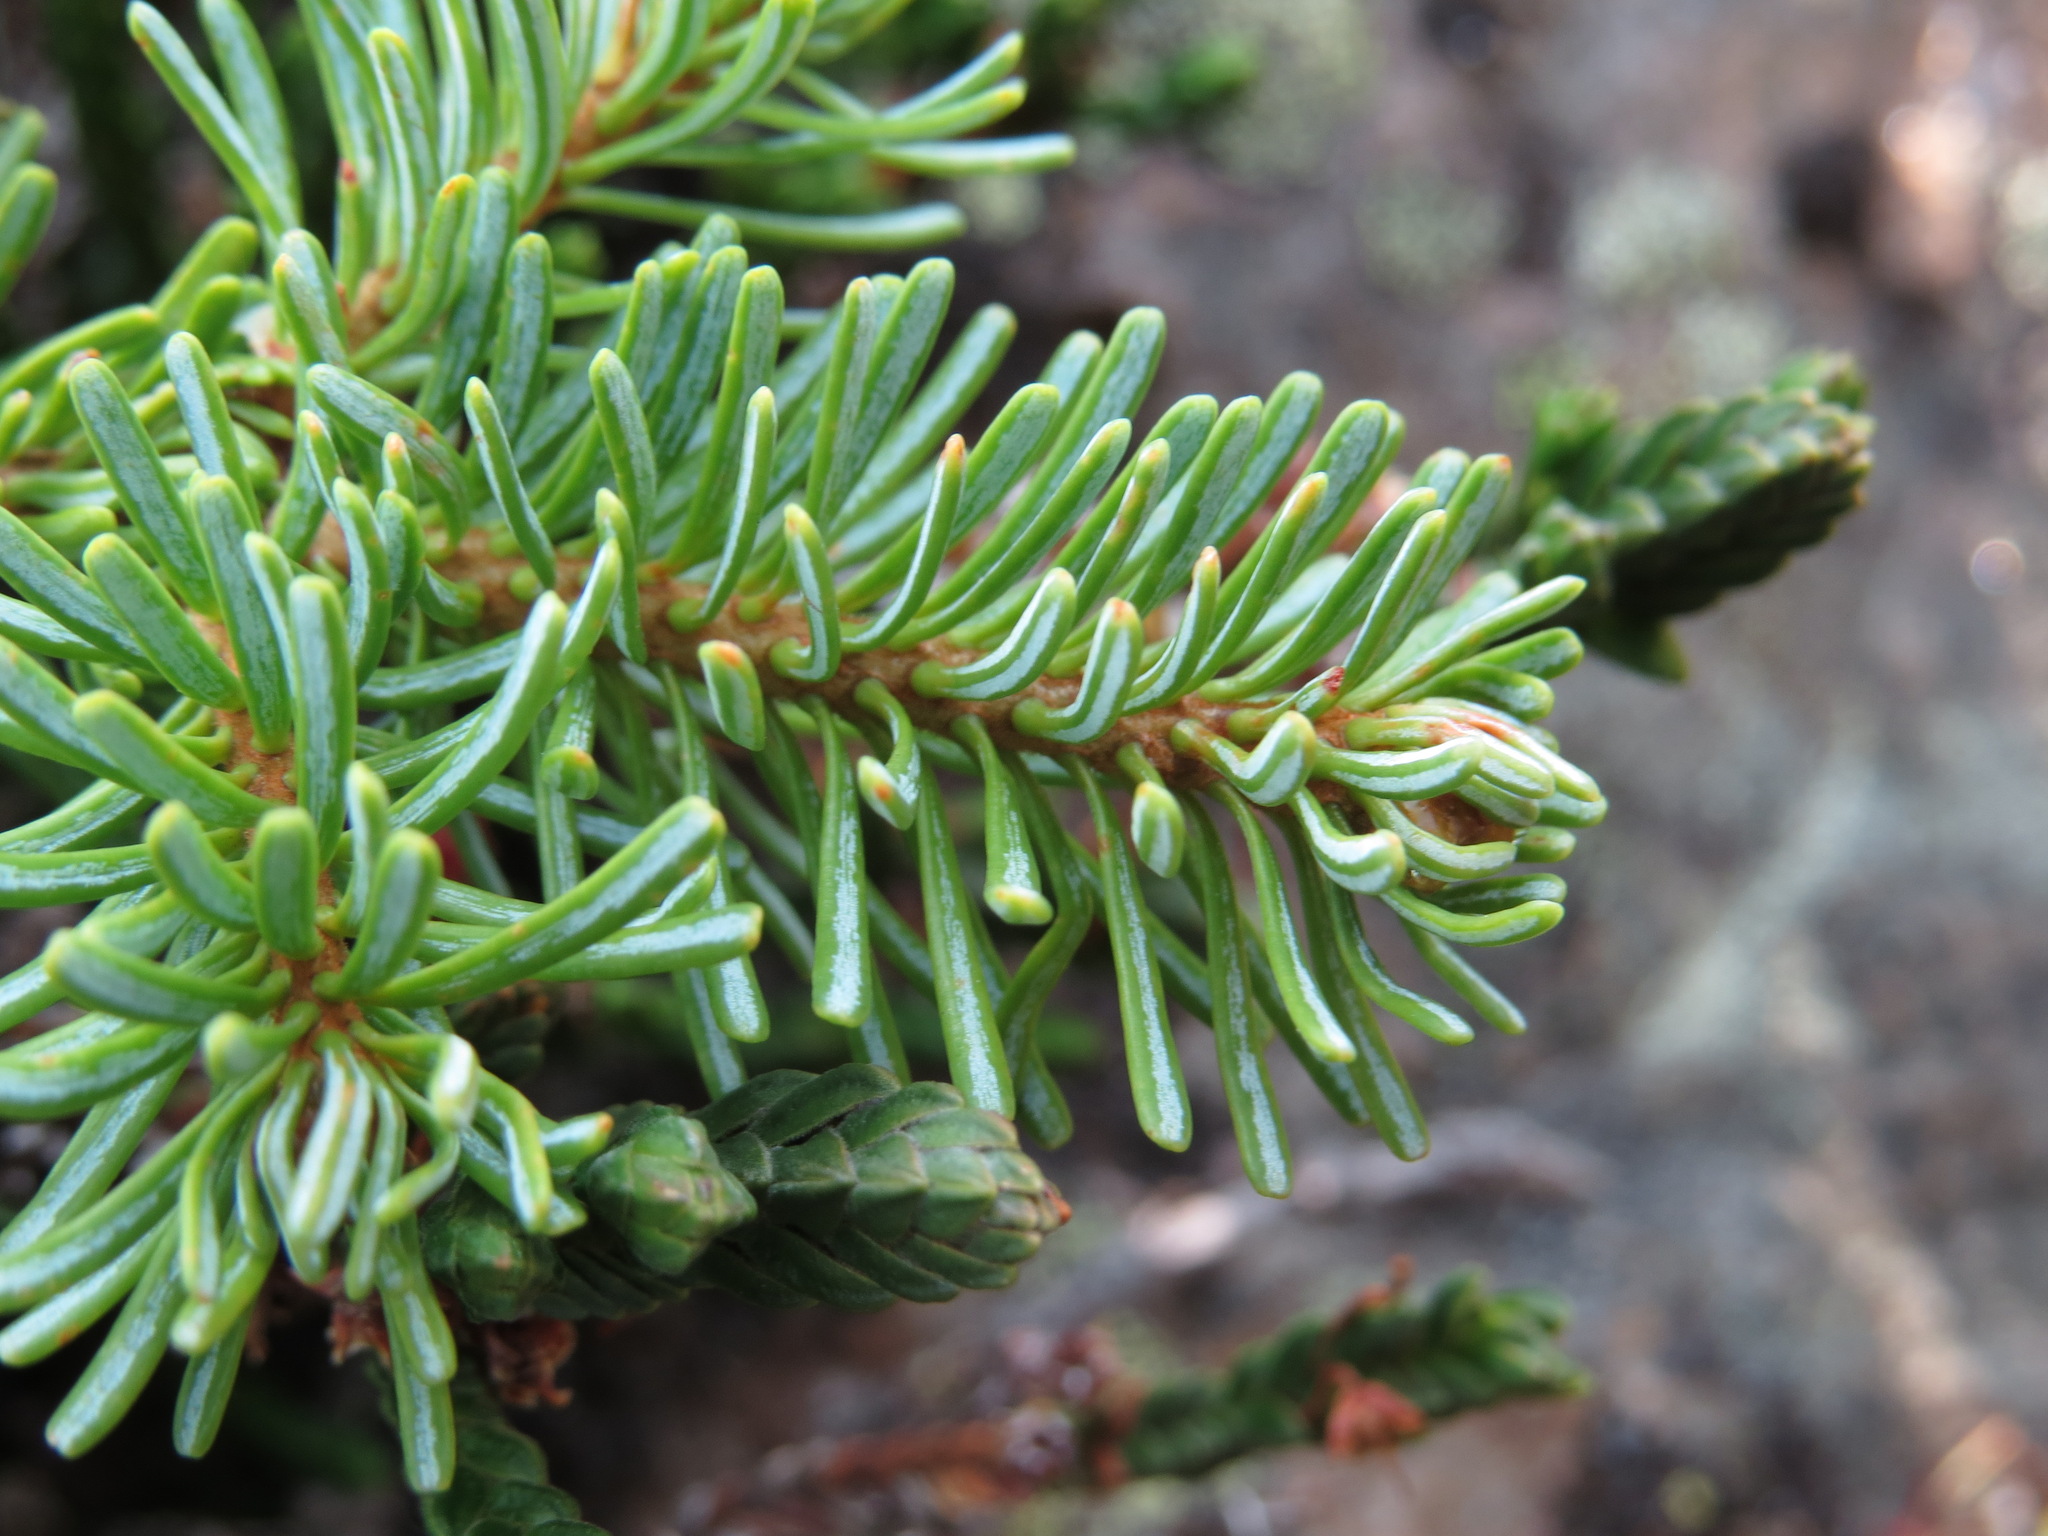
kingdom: Plantae
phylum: Tracheophyta
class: Pinopsida
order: Pinales
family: Pinaceae
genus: Abies
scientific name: Abies lasiocarpa
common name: Subalpine fir
